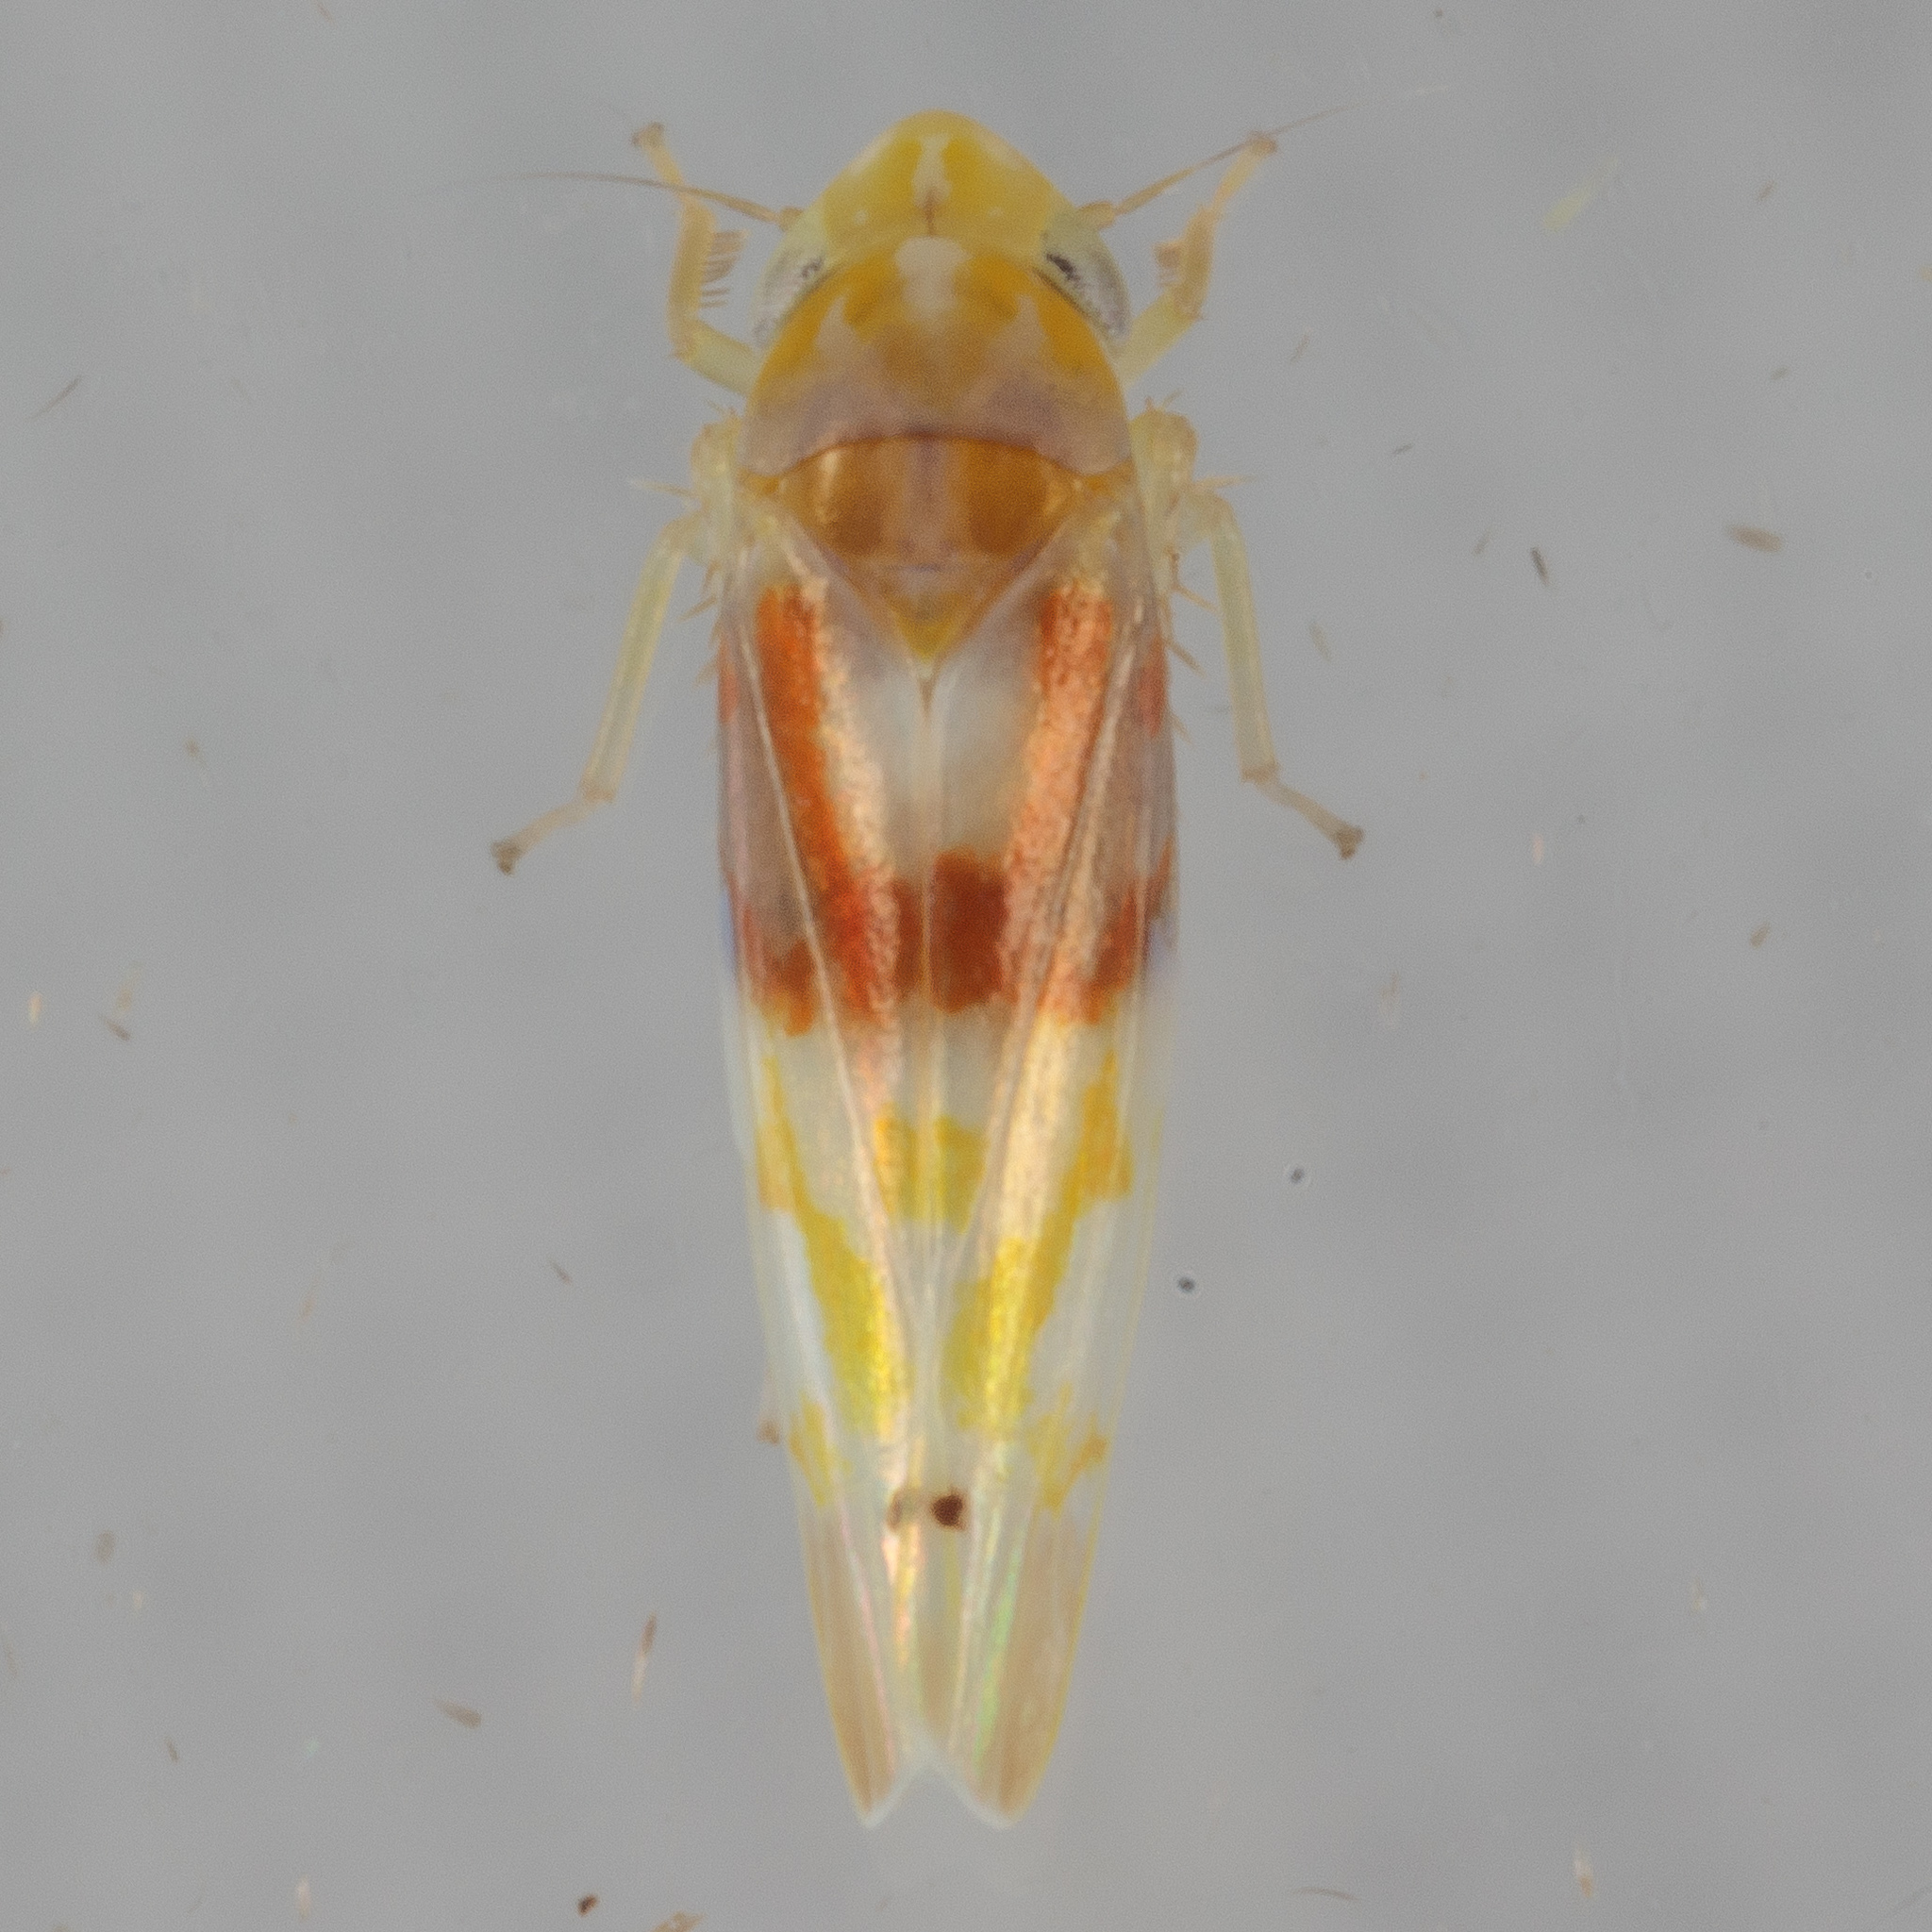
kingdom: Animalia
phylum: Arthropoda
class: Insecta
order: Hemiptera
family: Cicadellidae
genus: Eratoneura
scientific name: Eratoneura affinis
